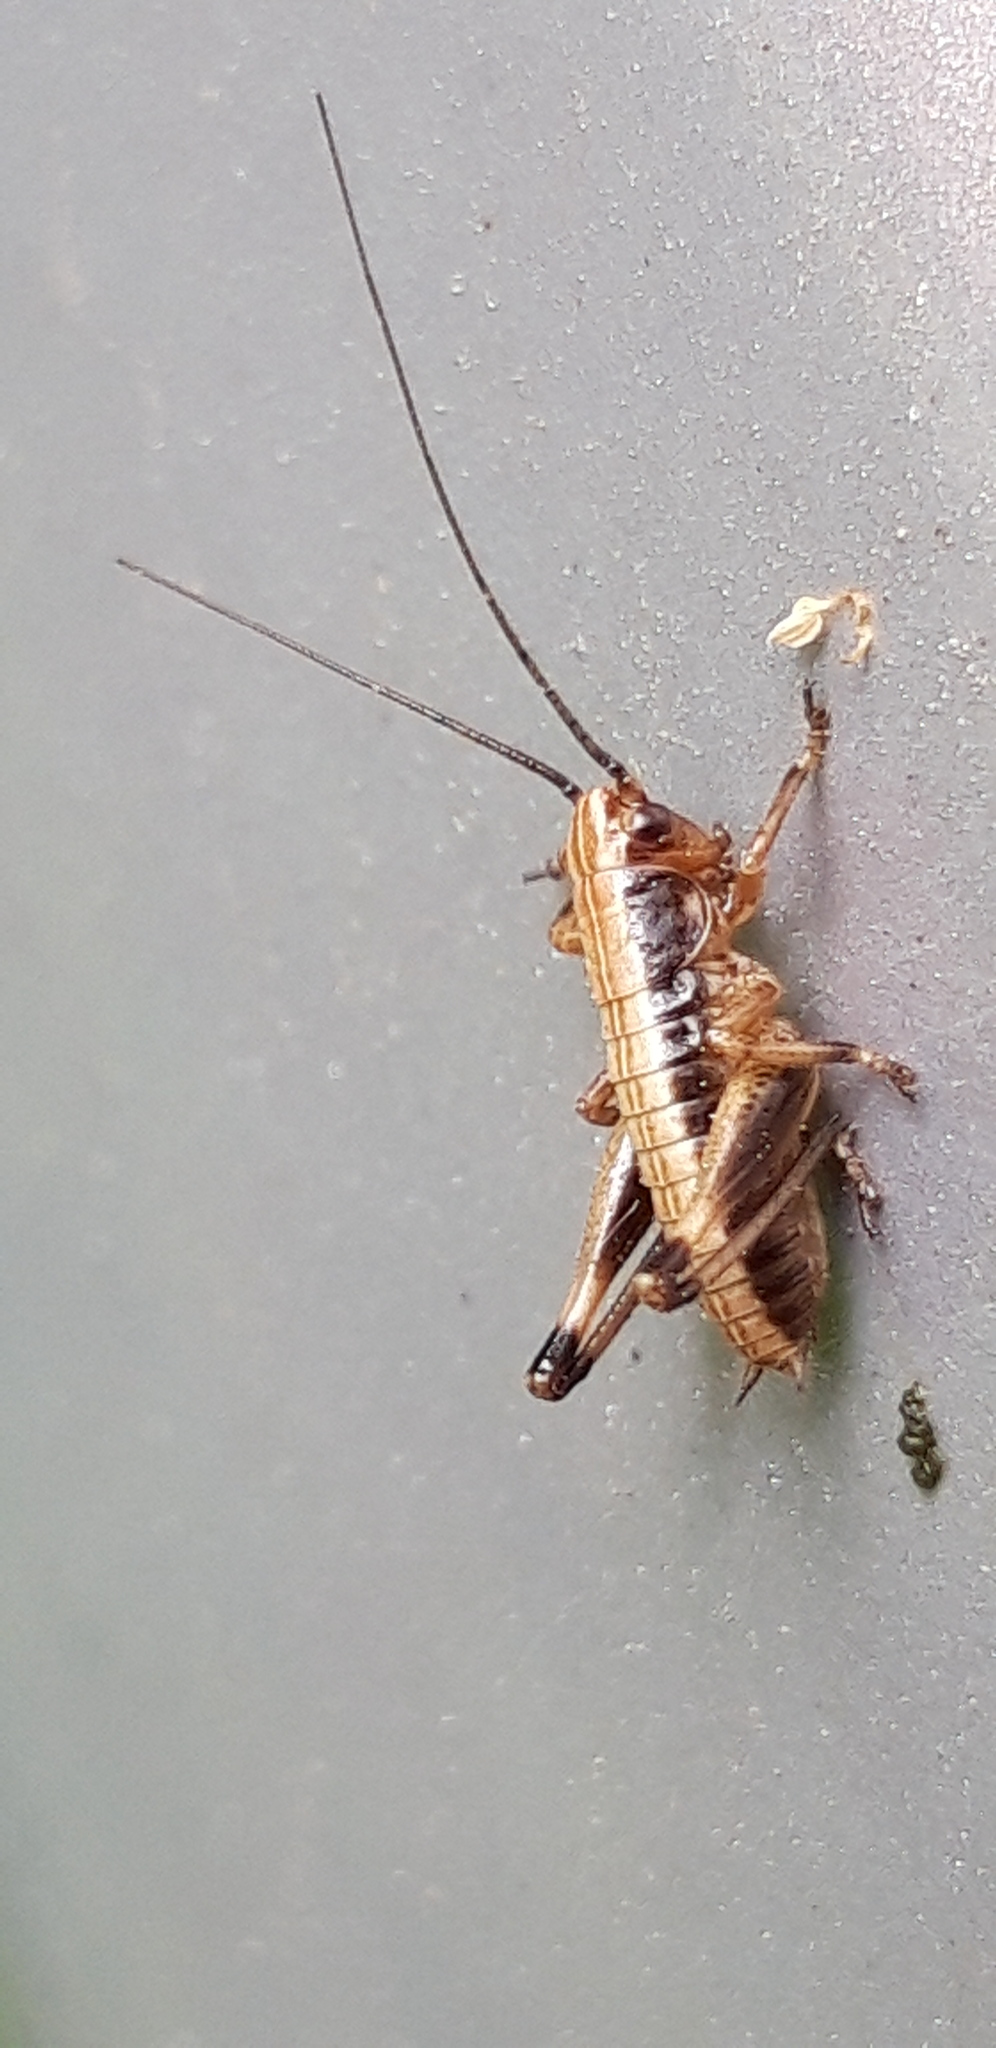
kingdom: Animalia
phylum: Arthropoda
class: Insecta
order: Orthoptera
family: Tettigoniidae
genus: Pholidoptera
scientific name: Pholidoptera griseoaptera
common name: Dark bush-cricket
